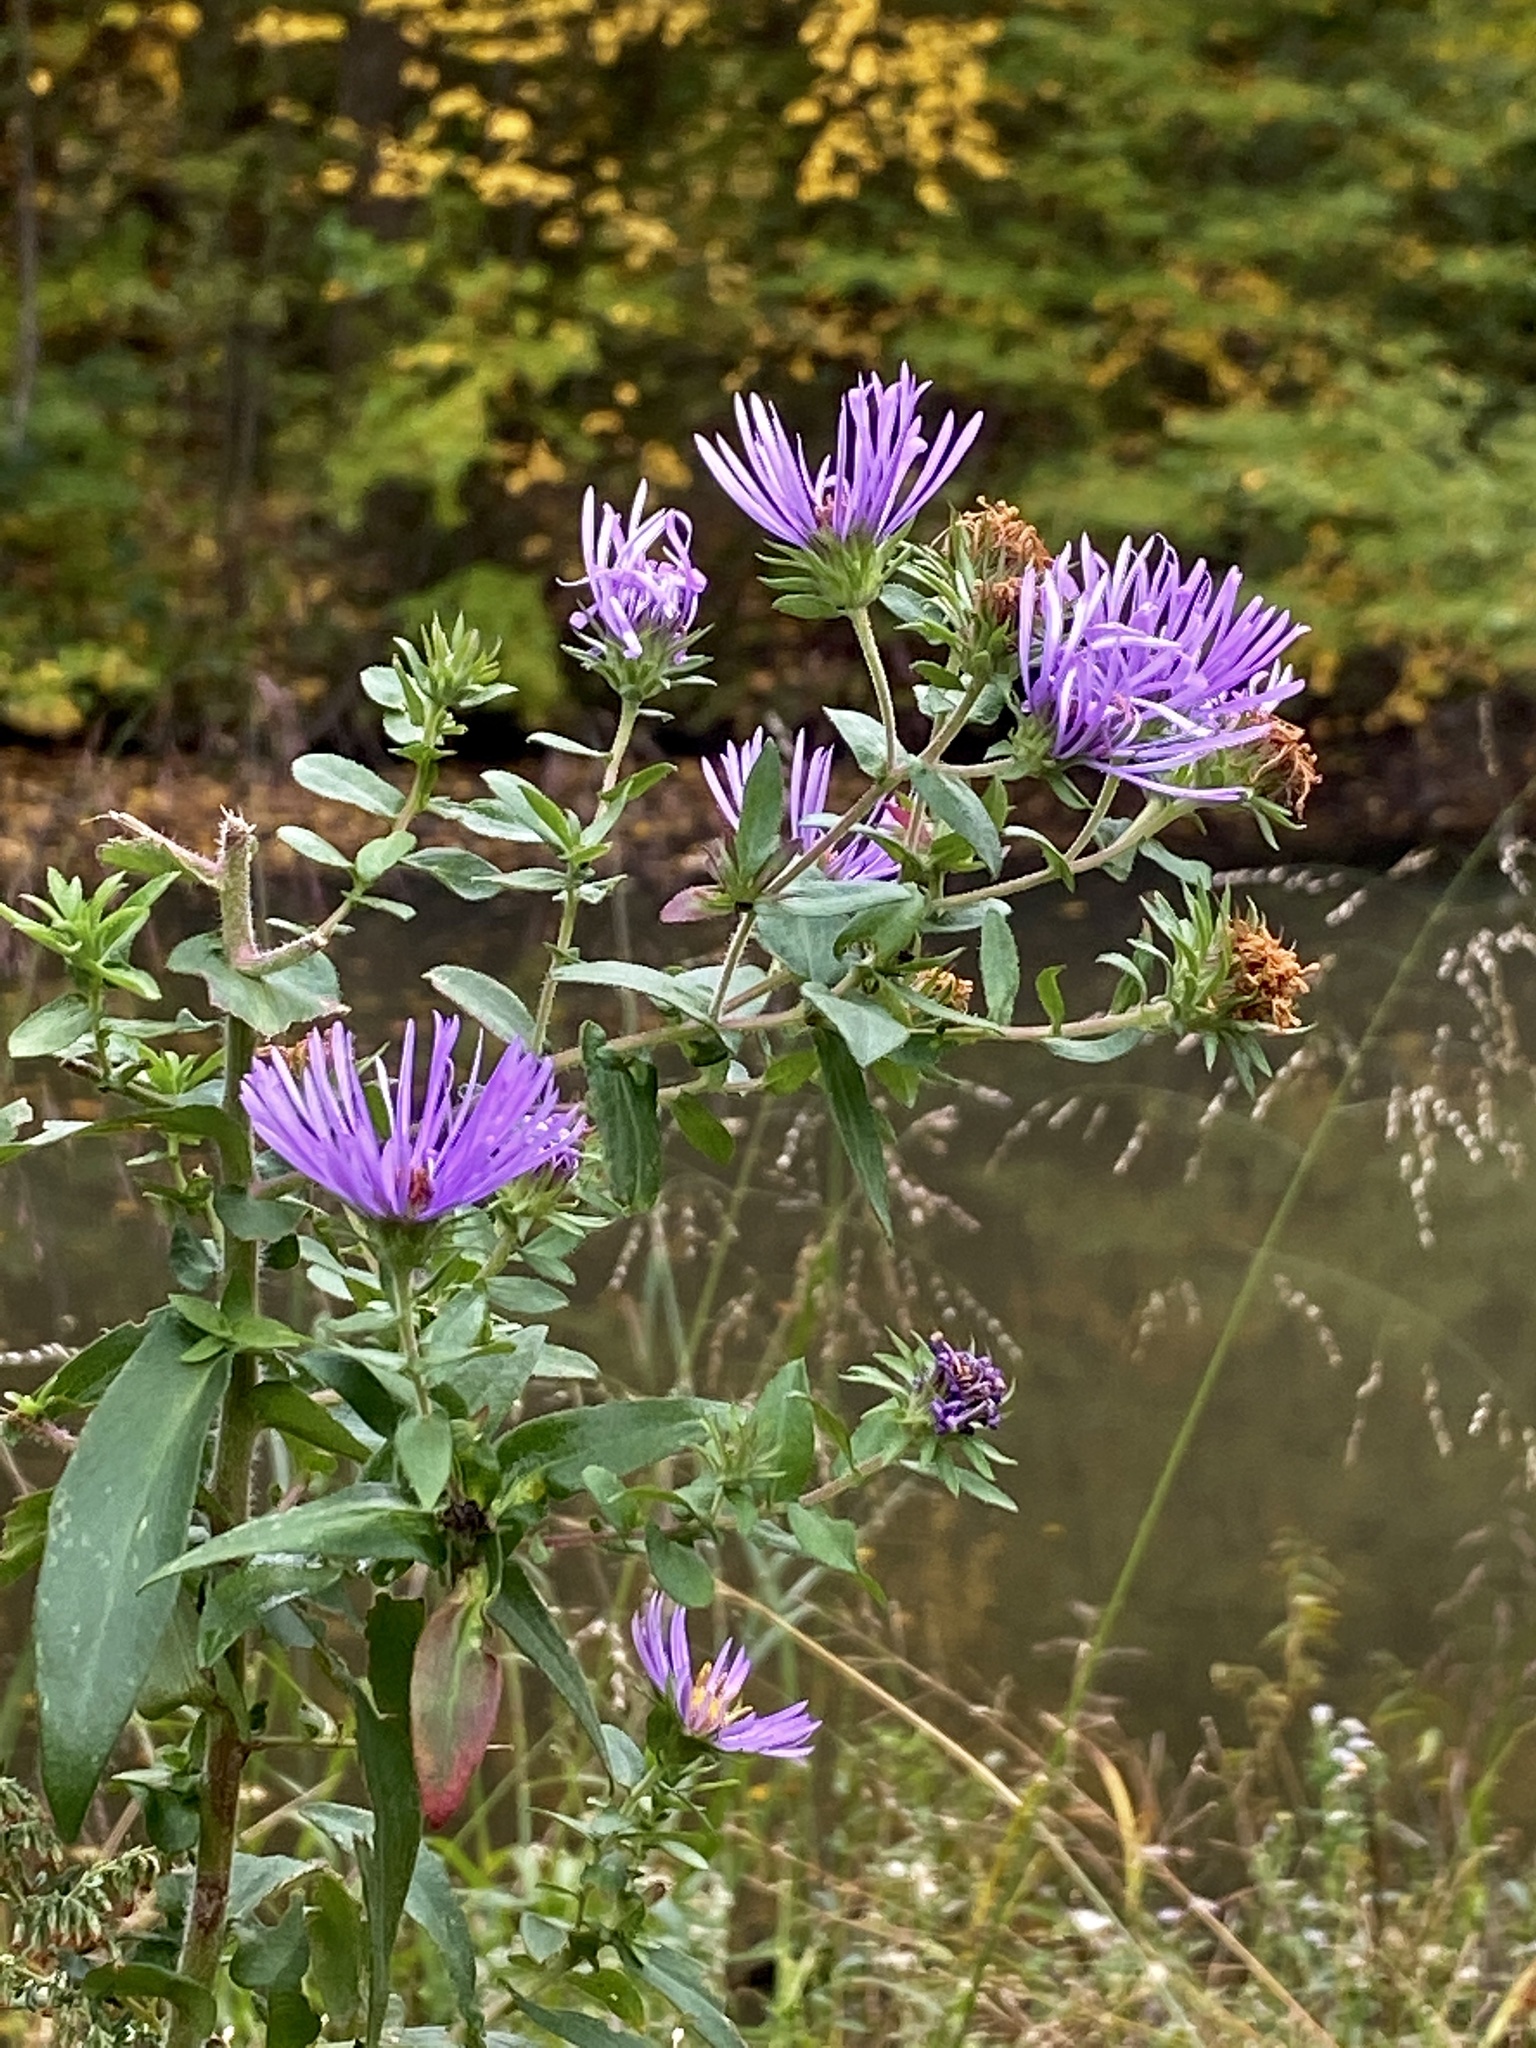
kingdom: Plantae
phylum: Tracheophyta
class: Magnoliopsida
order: Asterales
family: Asteraceae
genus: Symphyotrichum
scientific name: Symphyotrichum novae-angliae
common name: Michaelmas daisy
